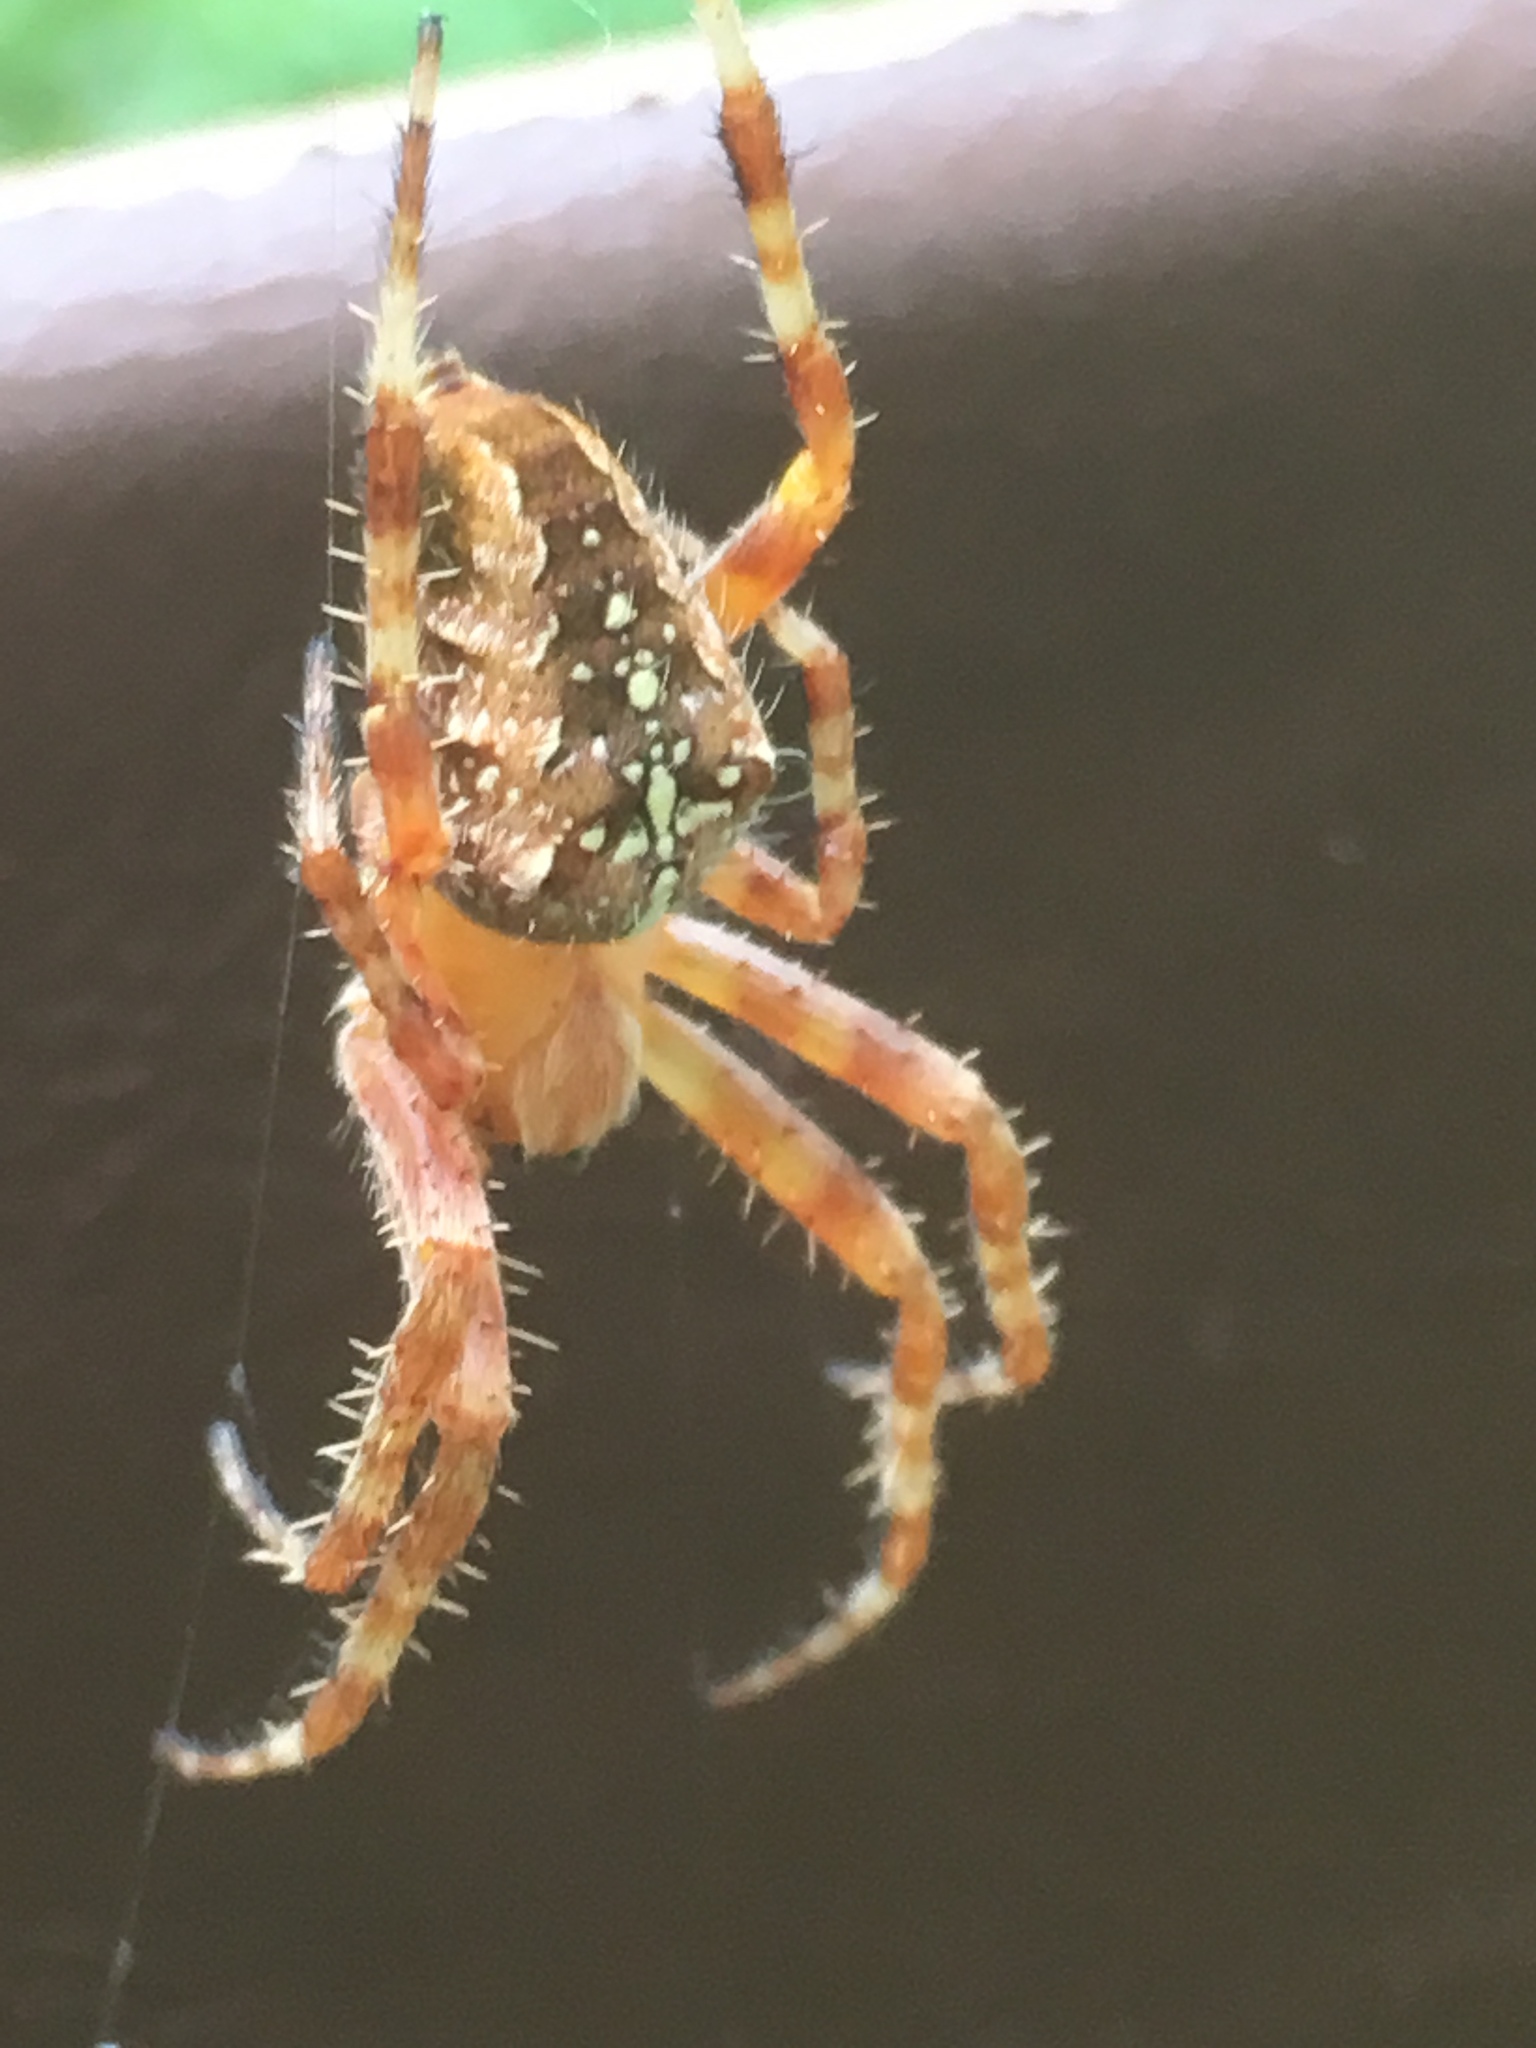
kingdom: Animalia
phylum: Arthropoda
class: Arachnida
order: Araneae
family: Araneidae
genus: Araneus
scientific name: Araneus diadematus
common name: Cross orbweaver
